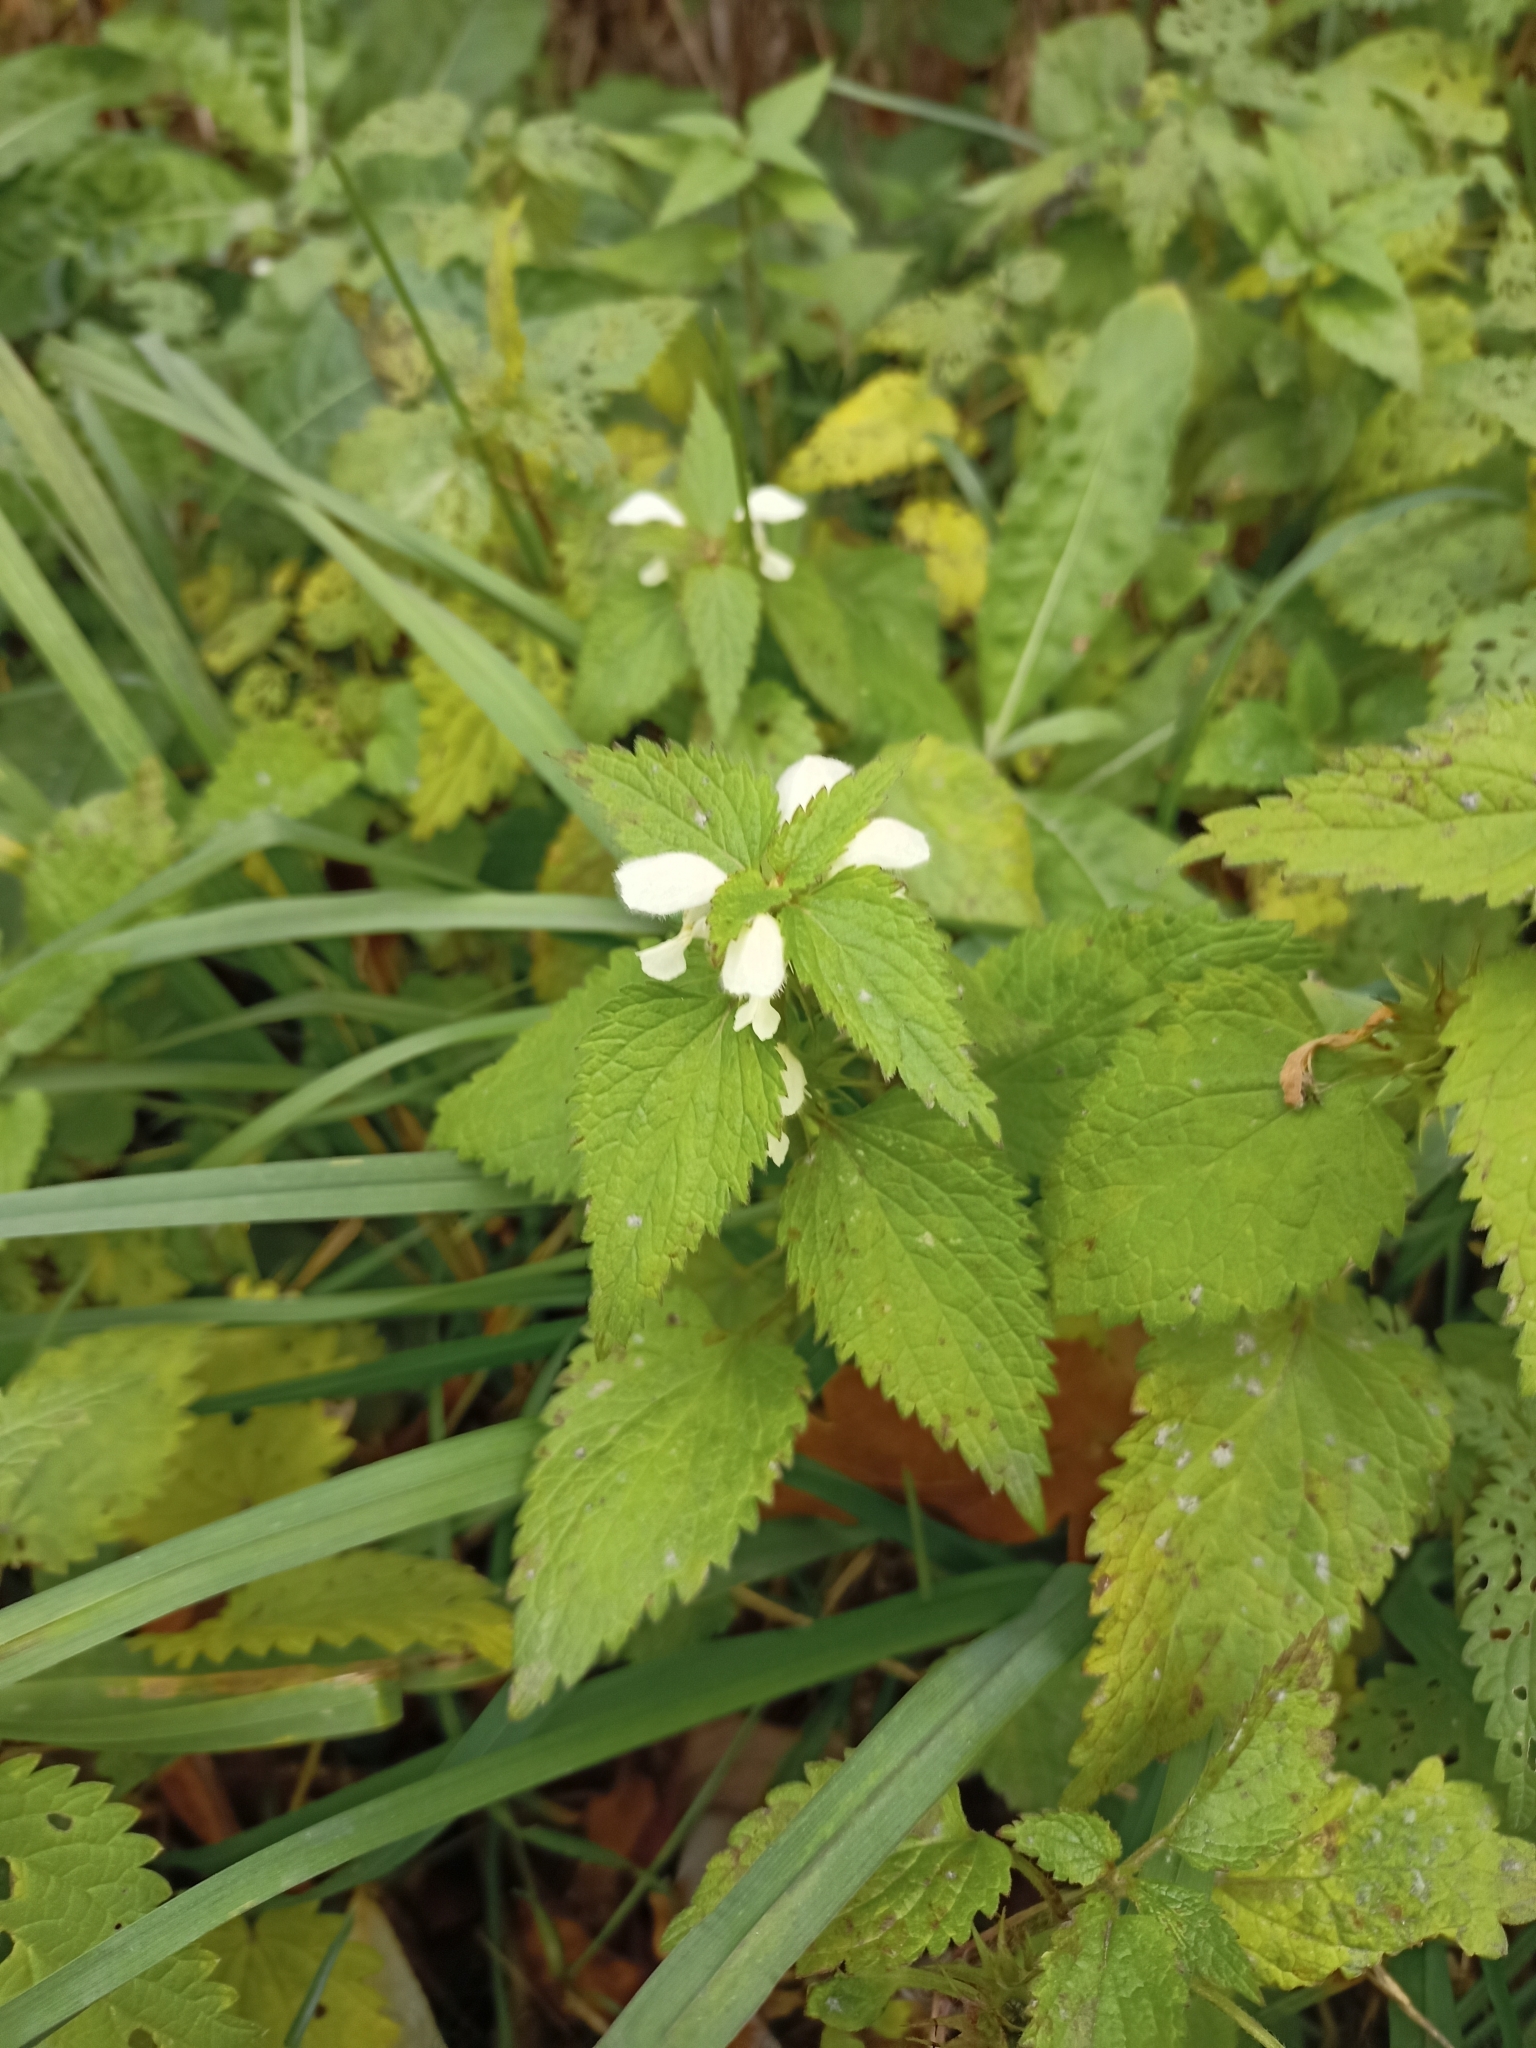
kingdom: Plantae
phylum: Tracheophyta
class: Magnoliopsida
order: Lamiales
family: Lamiaceae
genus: Lamium
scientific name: Lamium album
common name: White dead-nettle
